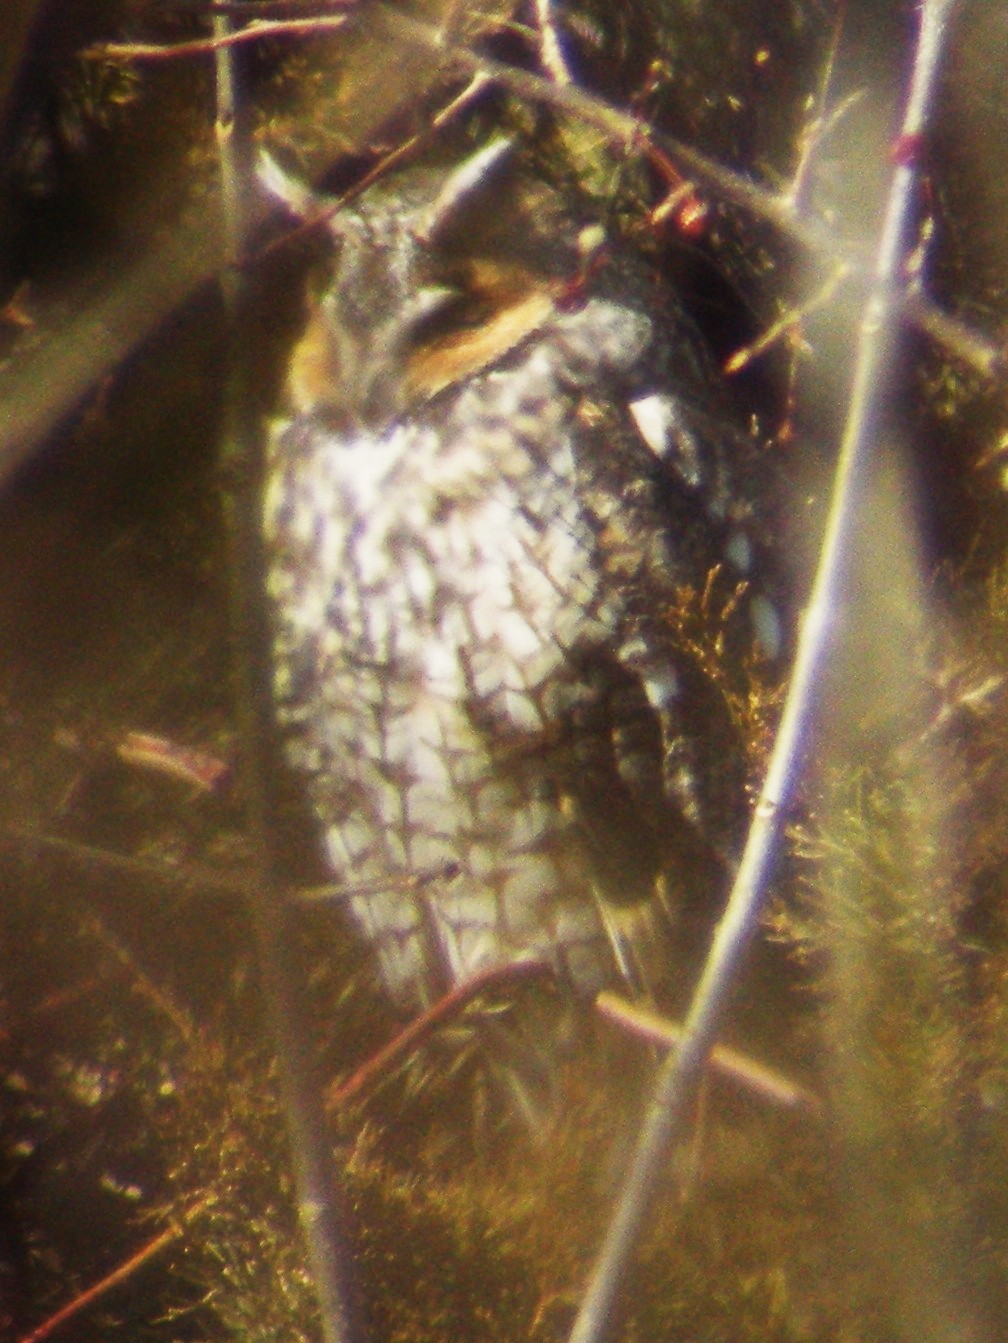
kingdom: Animalia
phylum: Chordata
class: Aves
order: Strigiformes
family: Strigidae
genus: Asio
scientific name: Asio otus
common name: Long-eared owl
